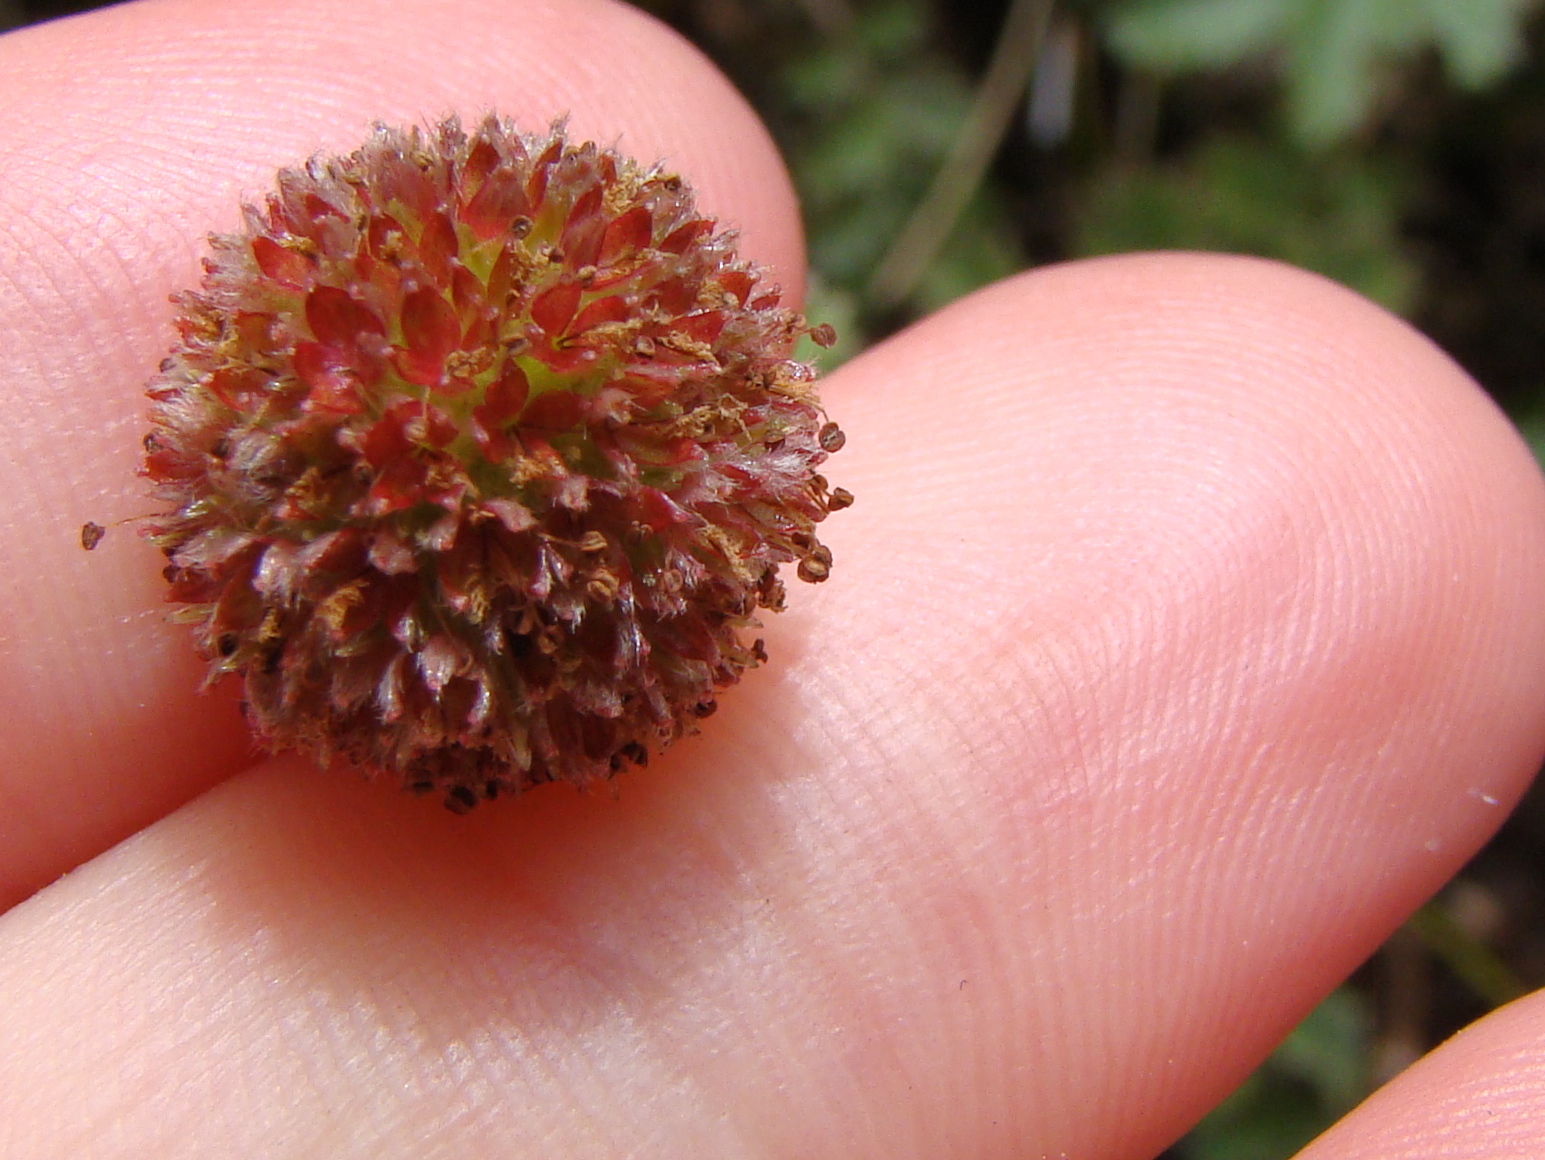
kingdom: Plantae
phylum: Tracheophyta
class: Magnoliopsida
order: Rosales
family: Rosaceae
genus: Acaena
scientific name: Acaena caesiiglauca
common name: Glaucous pirri-pirri-bur
